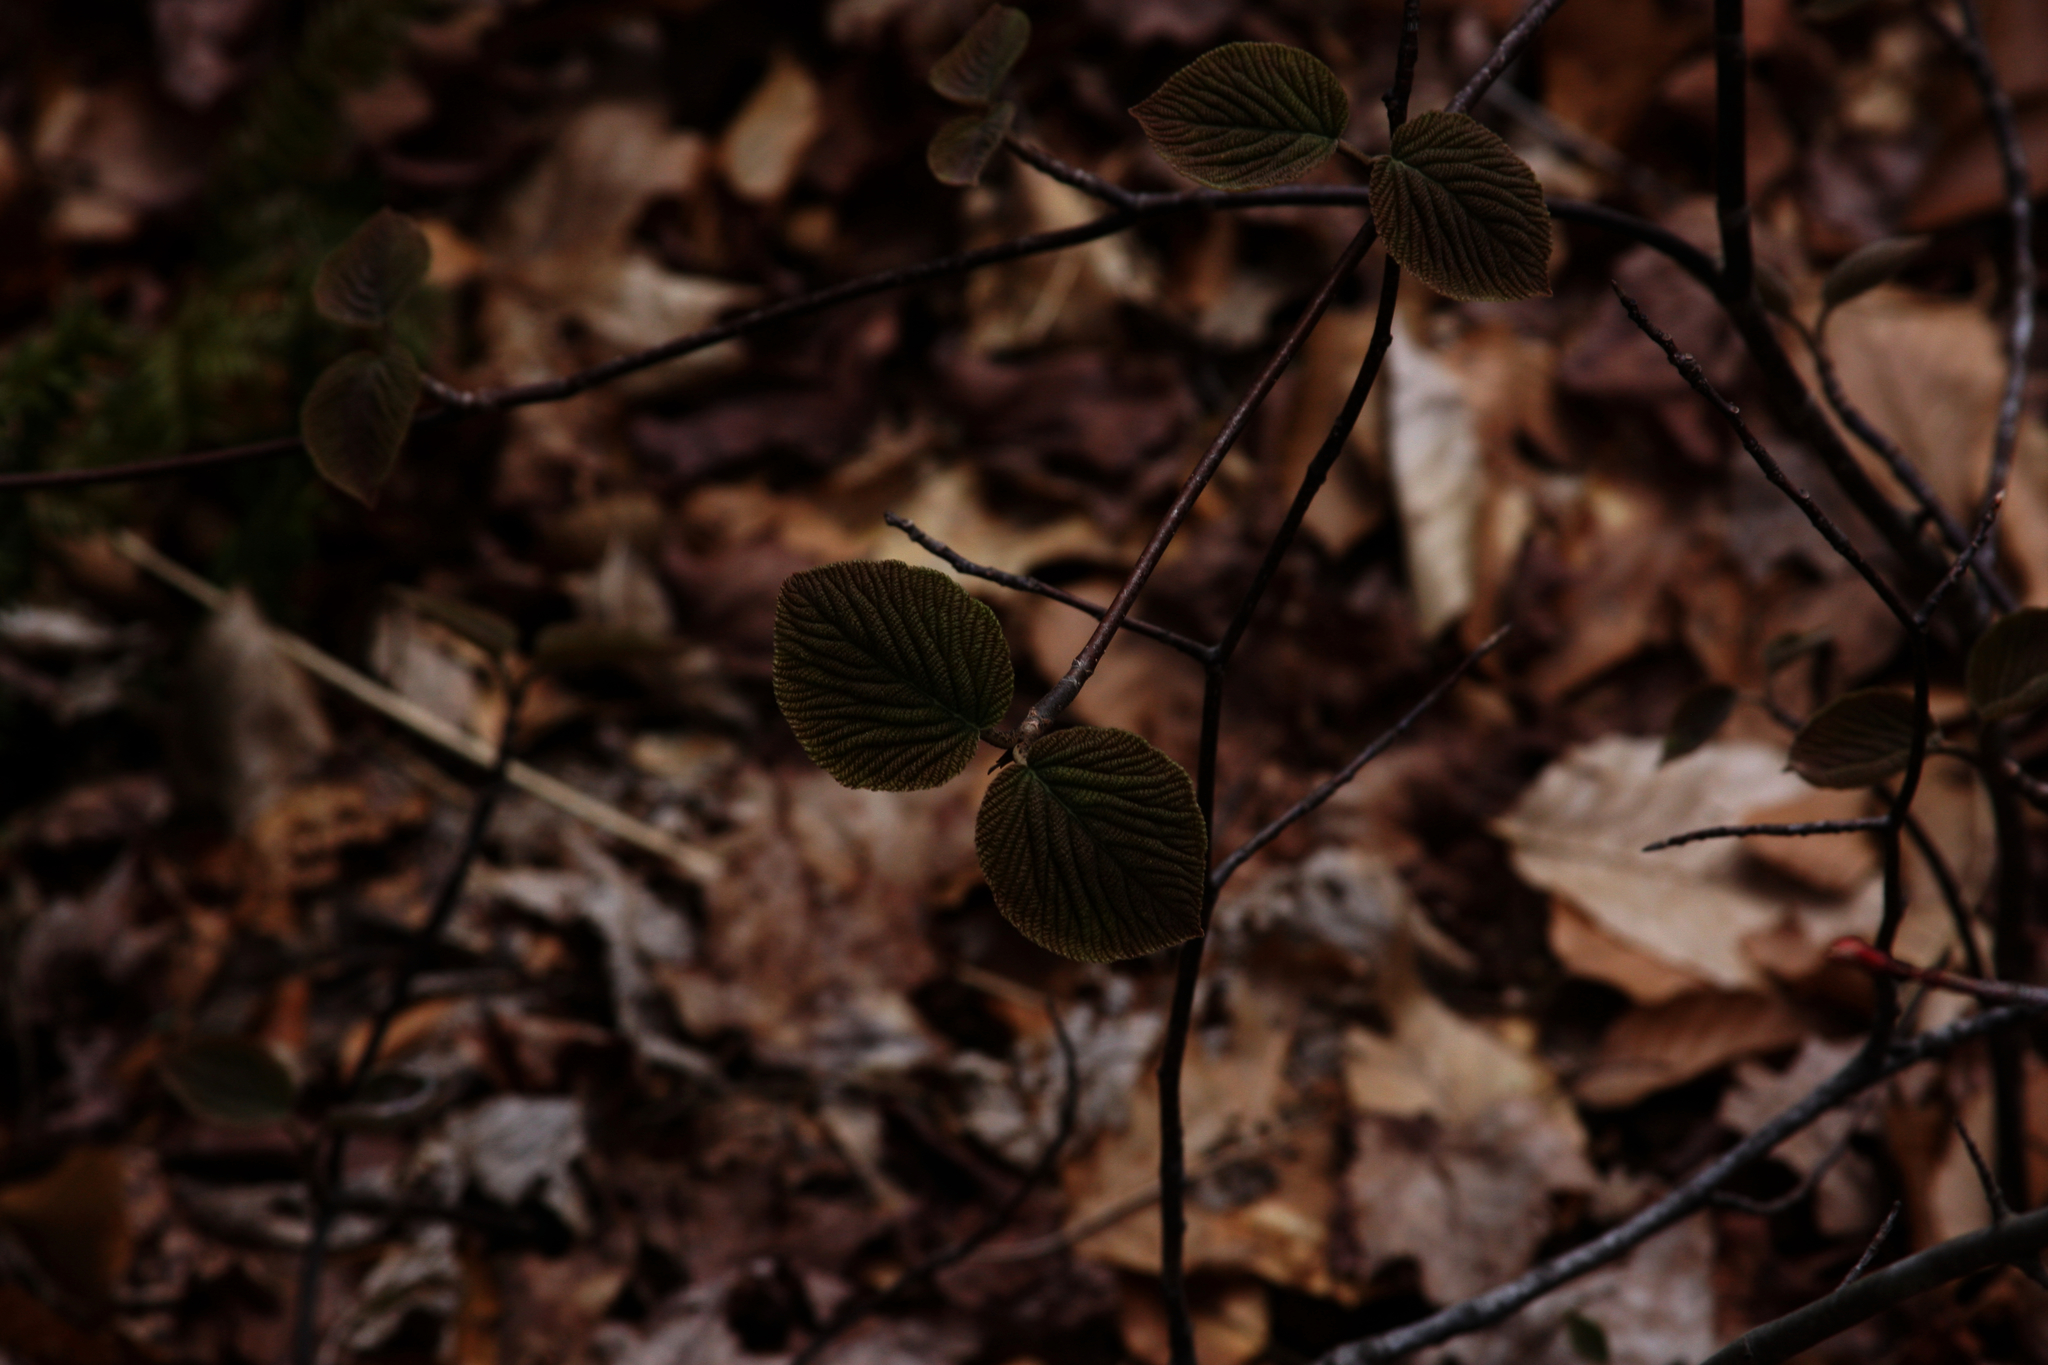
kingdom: Plantae
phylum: Tracheophyta
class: Magnoliopsida
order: Dipsacales
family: Viburnaceae
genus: Viburnum
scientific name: Viburnum lantanoides
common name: Hobblebush
